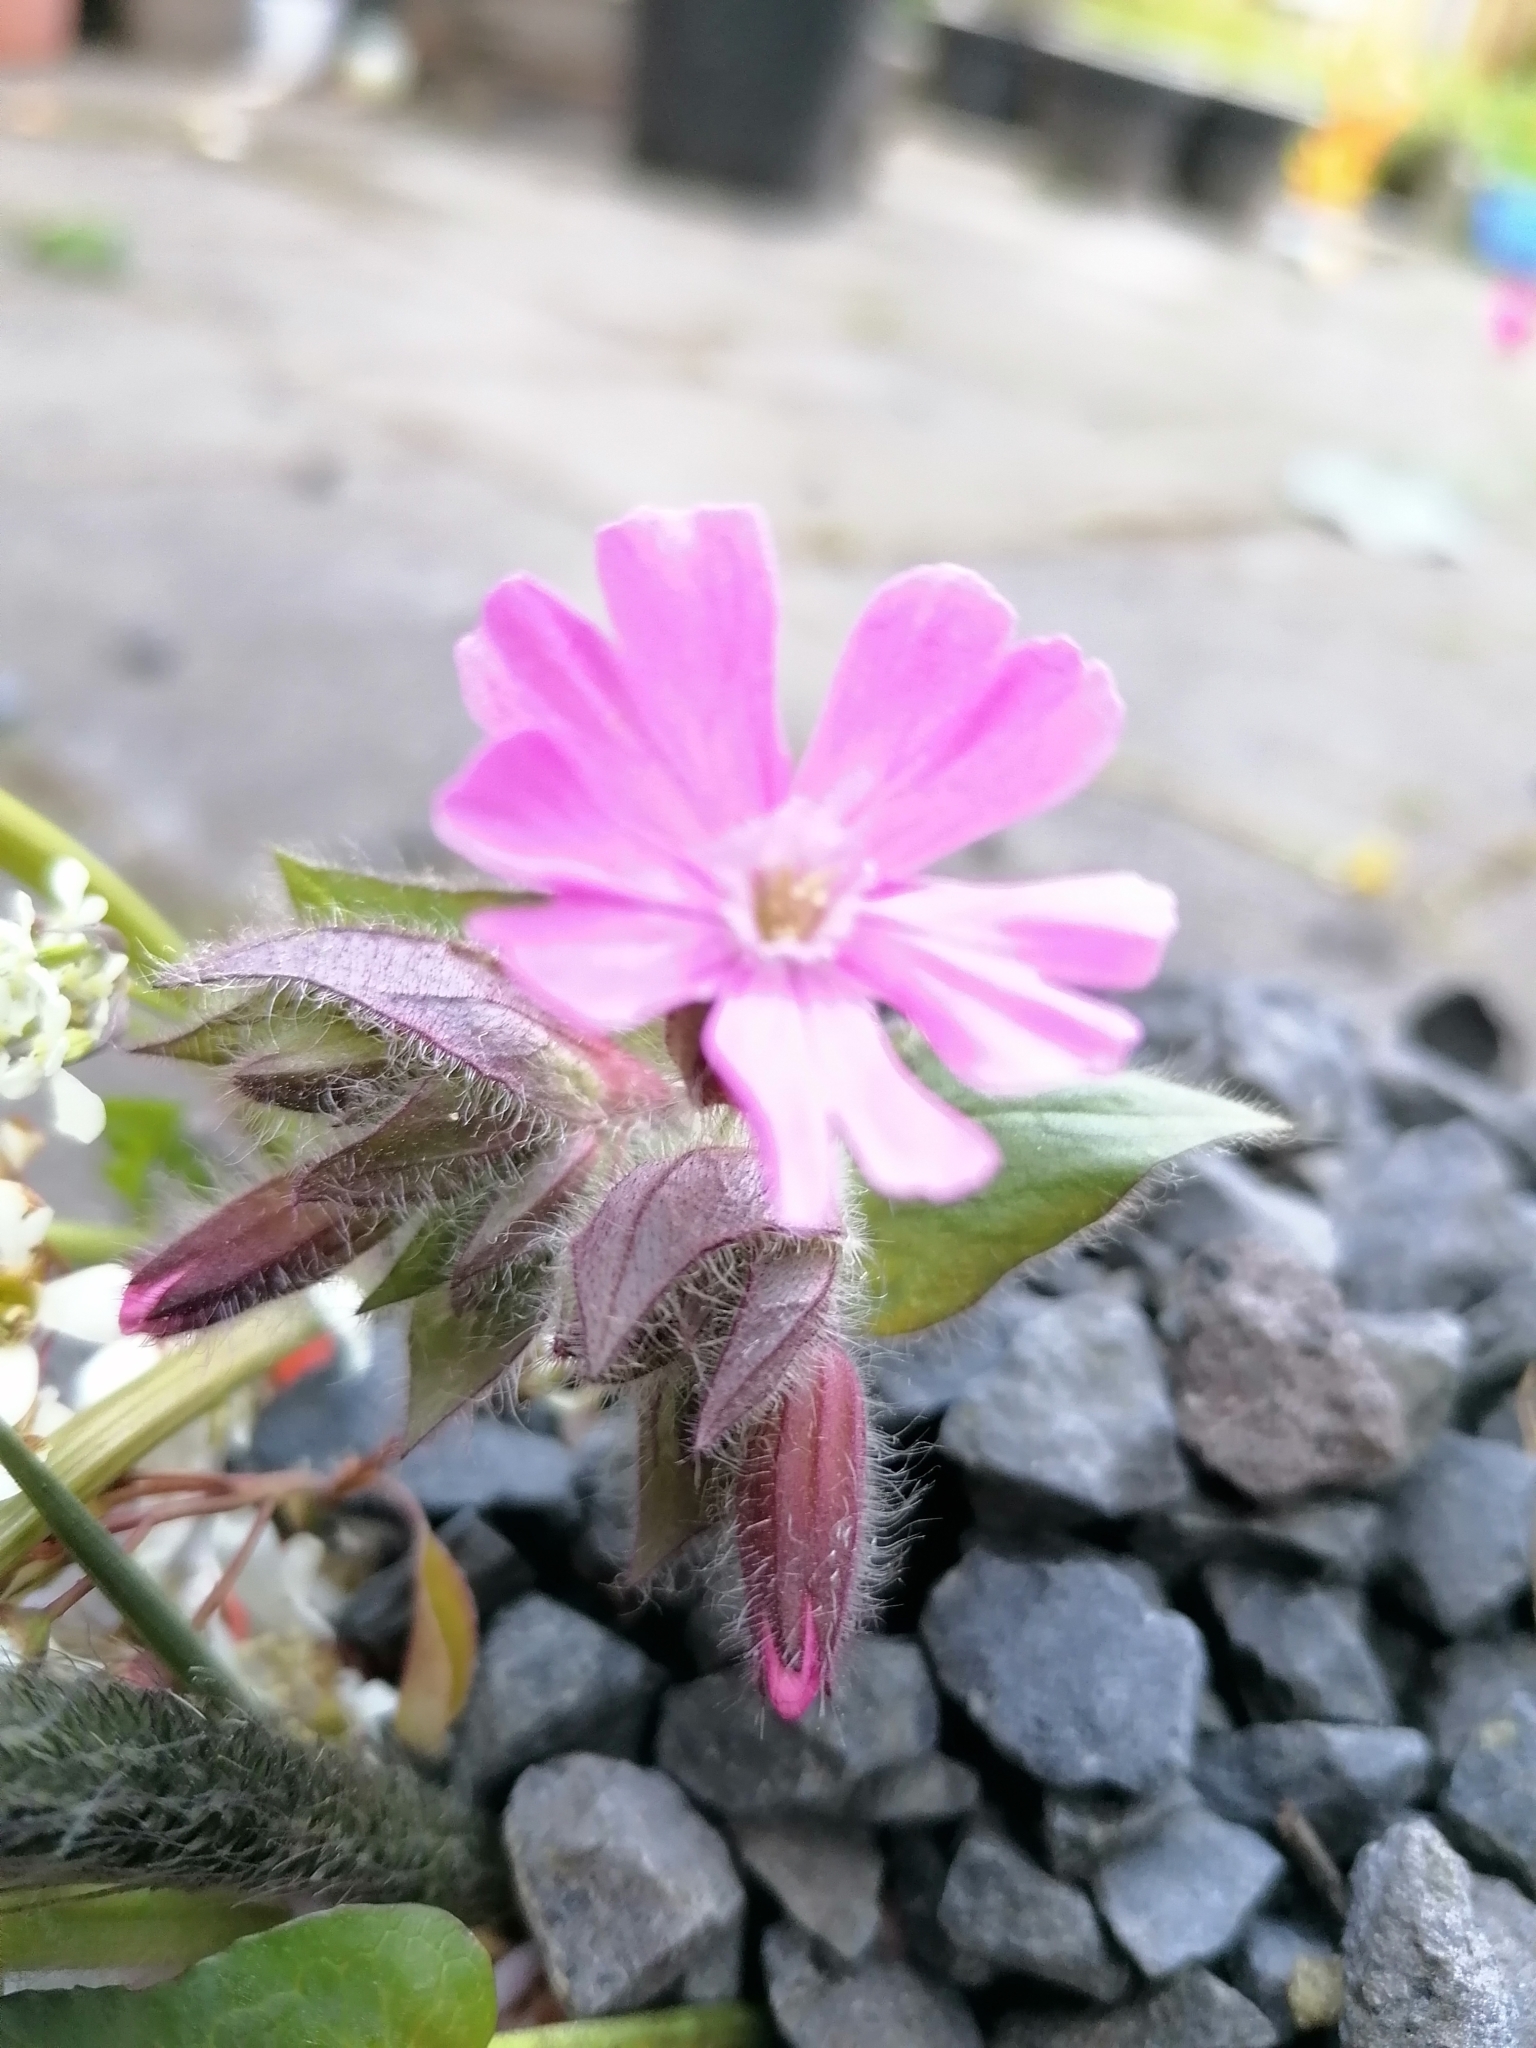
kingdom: Plantae
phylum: Tracheophyta
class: Magnoliopsida
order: Caryophyllales
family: Caryophyllaceae
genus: Silene
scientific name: Silene dioica
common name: Red campion
